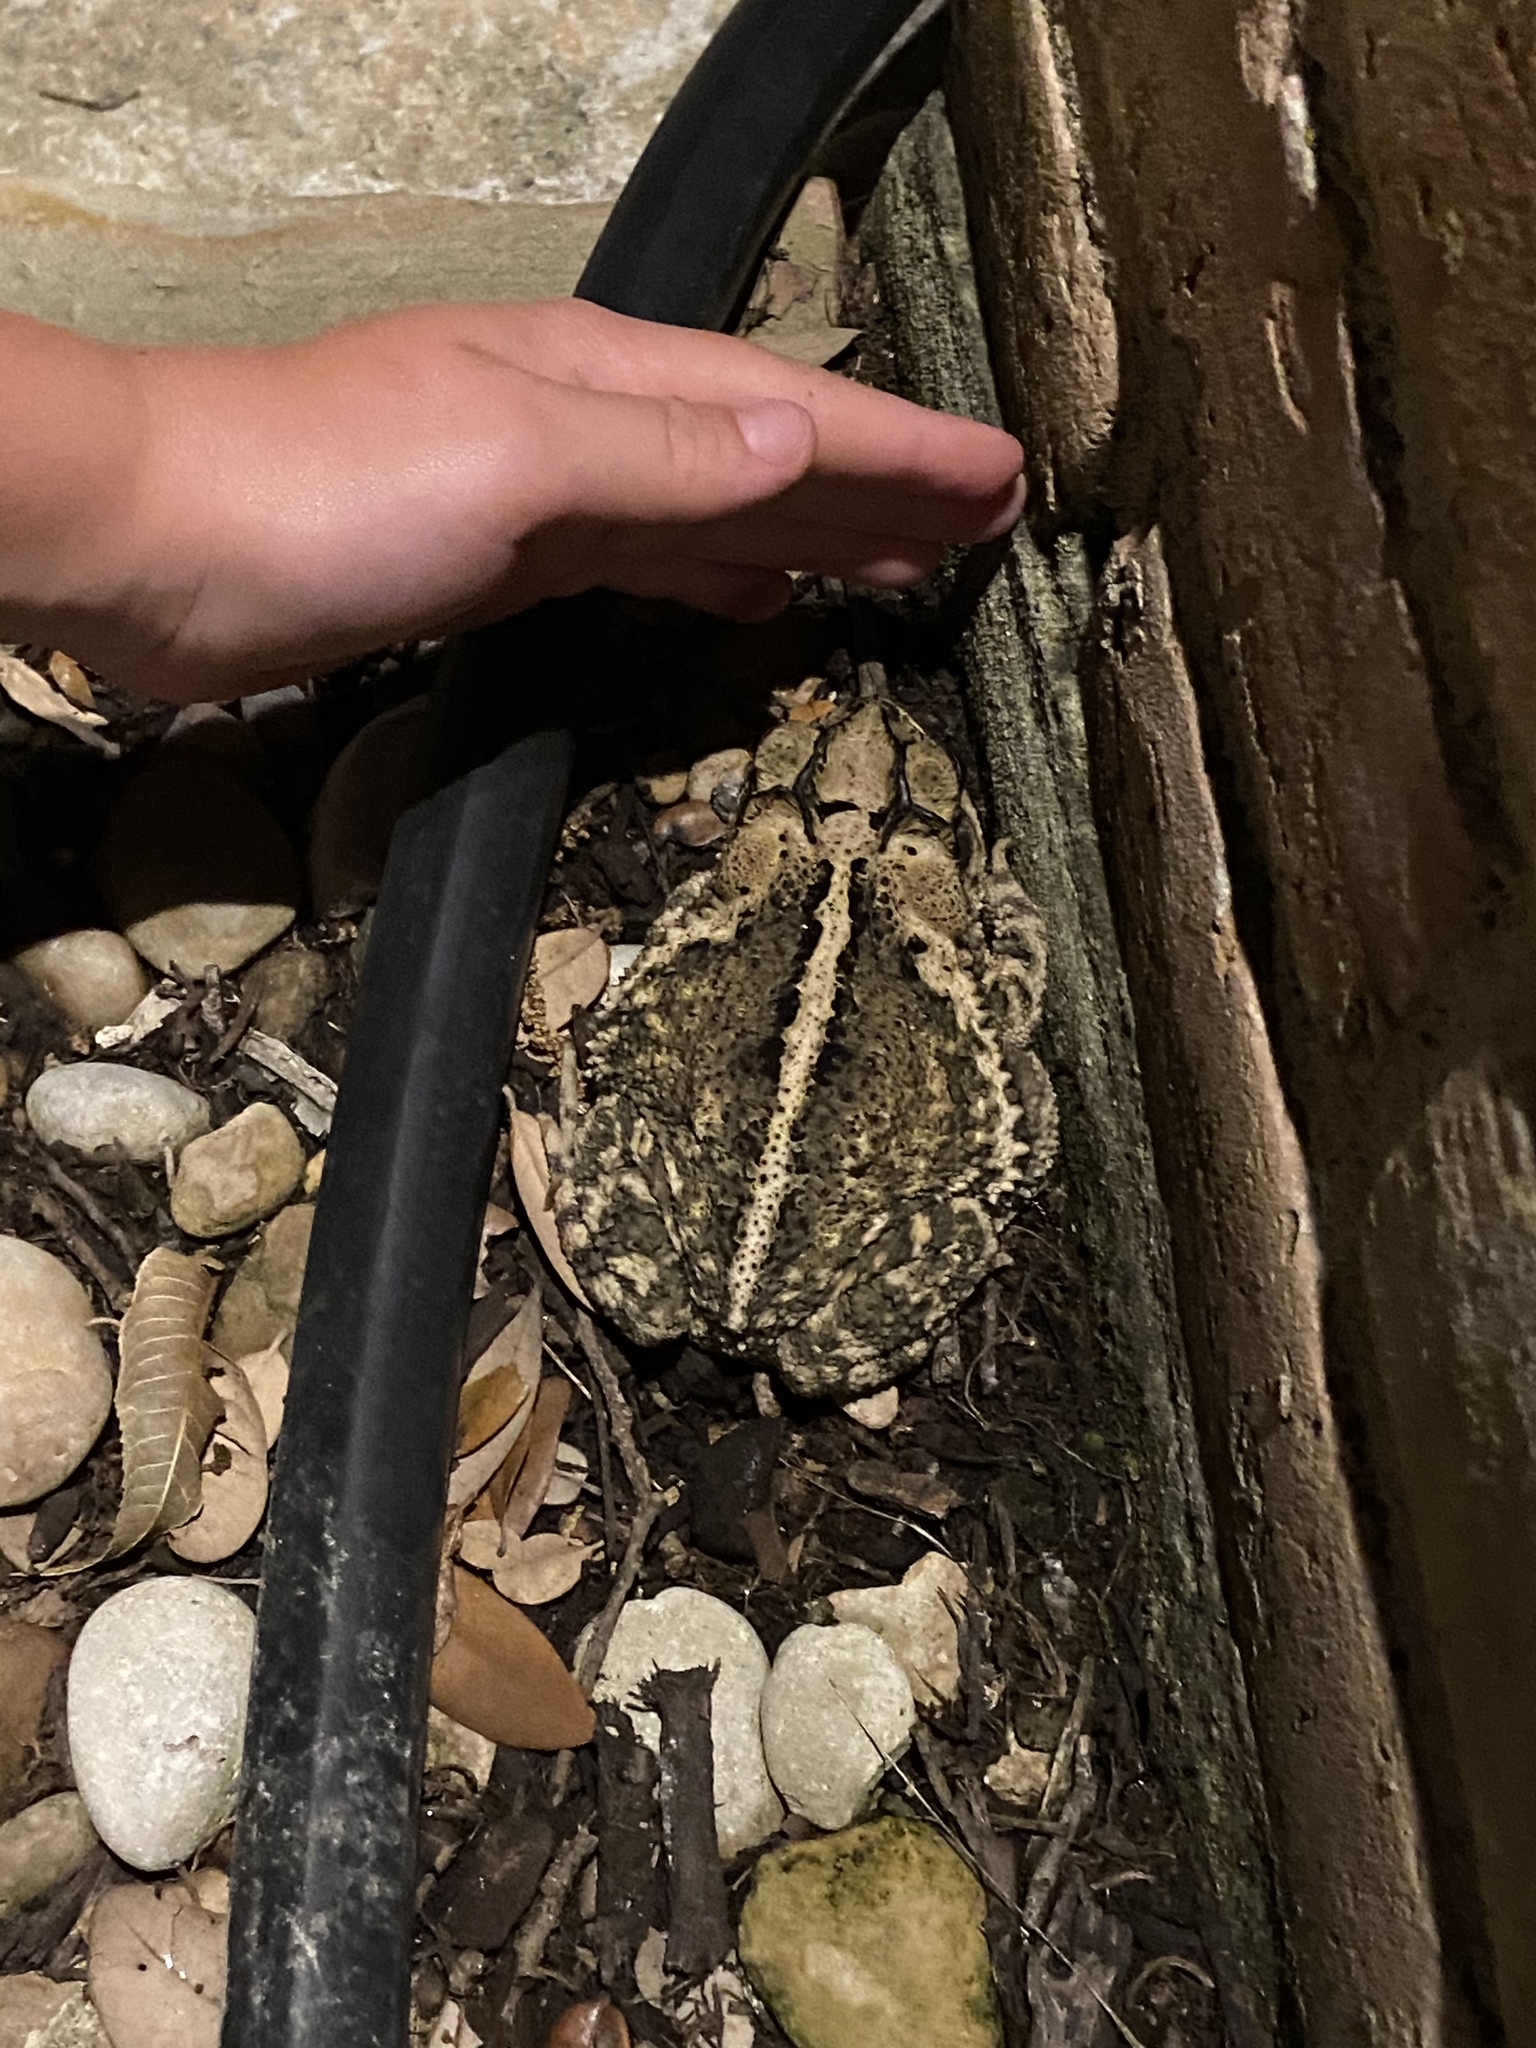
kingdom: Animalia
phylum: Chordata
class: Amphibia
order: Anura
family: Bufonidae
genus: Incilius
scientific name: Incilius nebulifer
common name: Gulf coast toad
